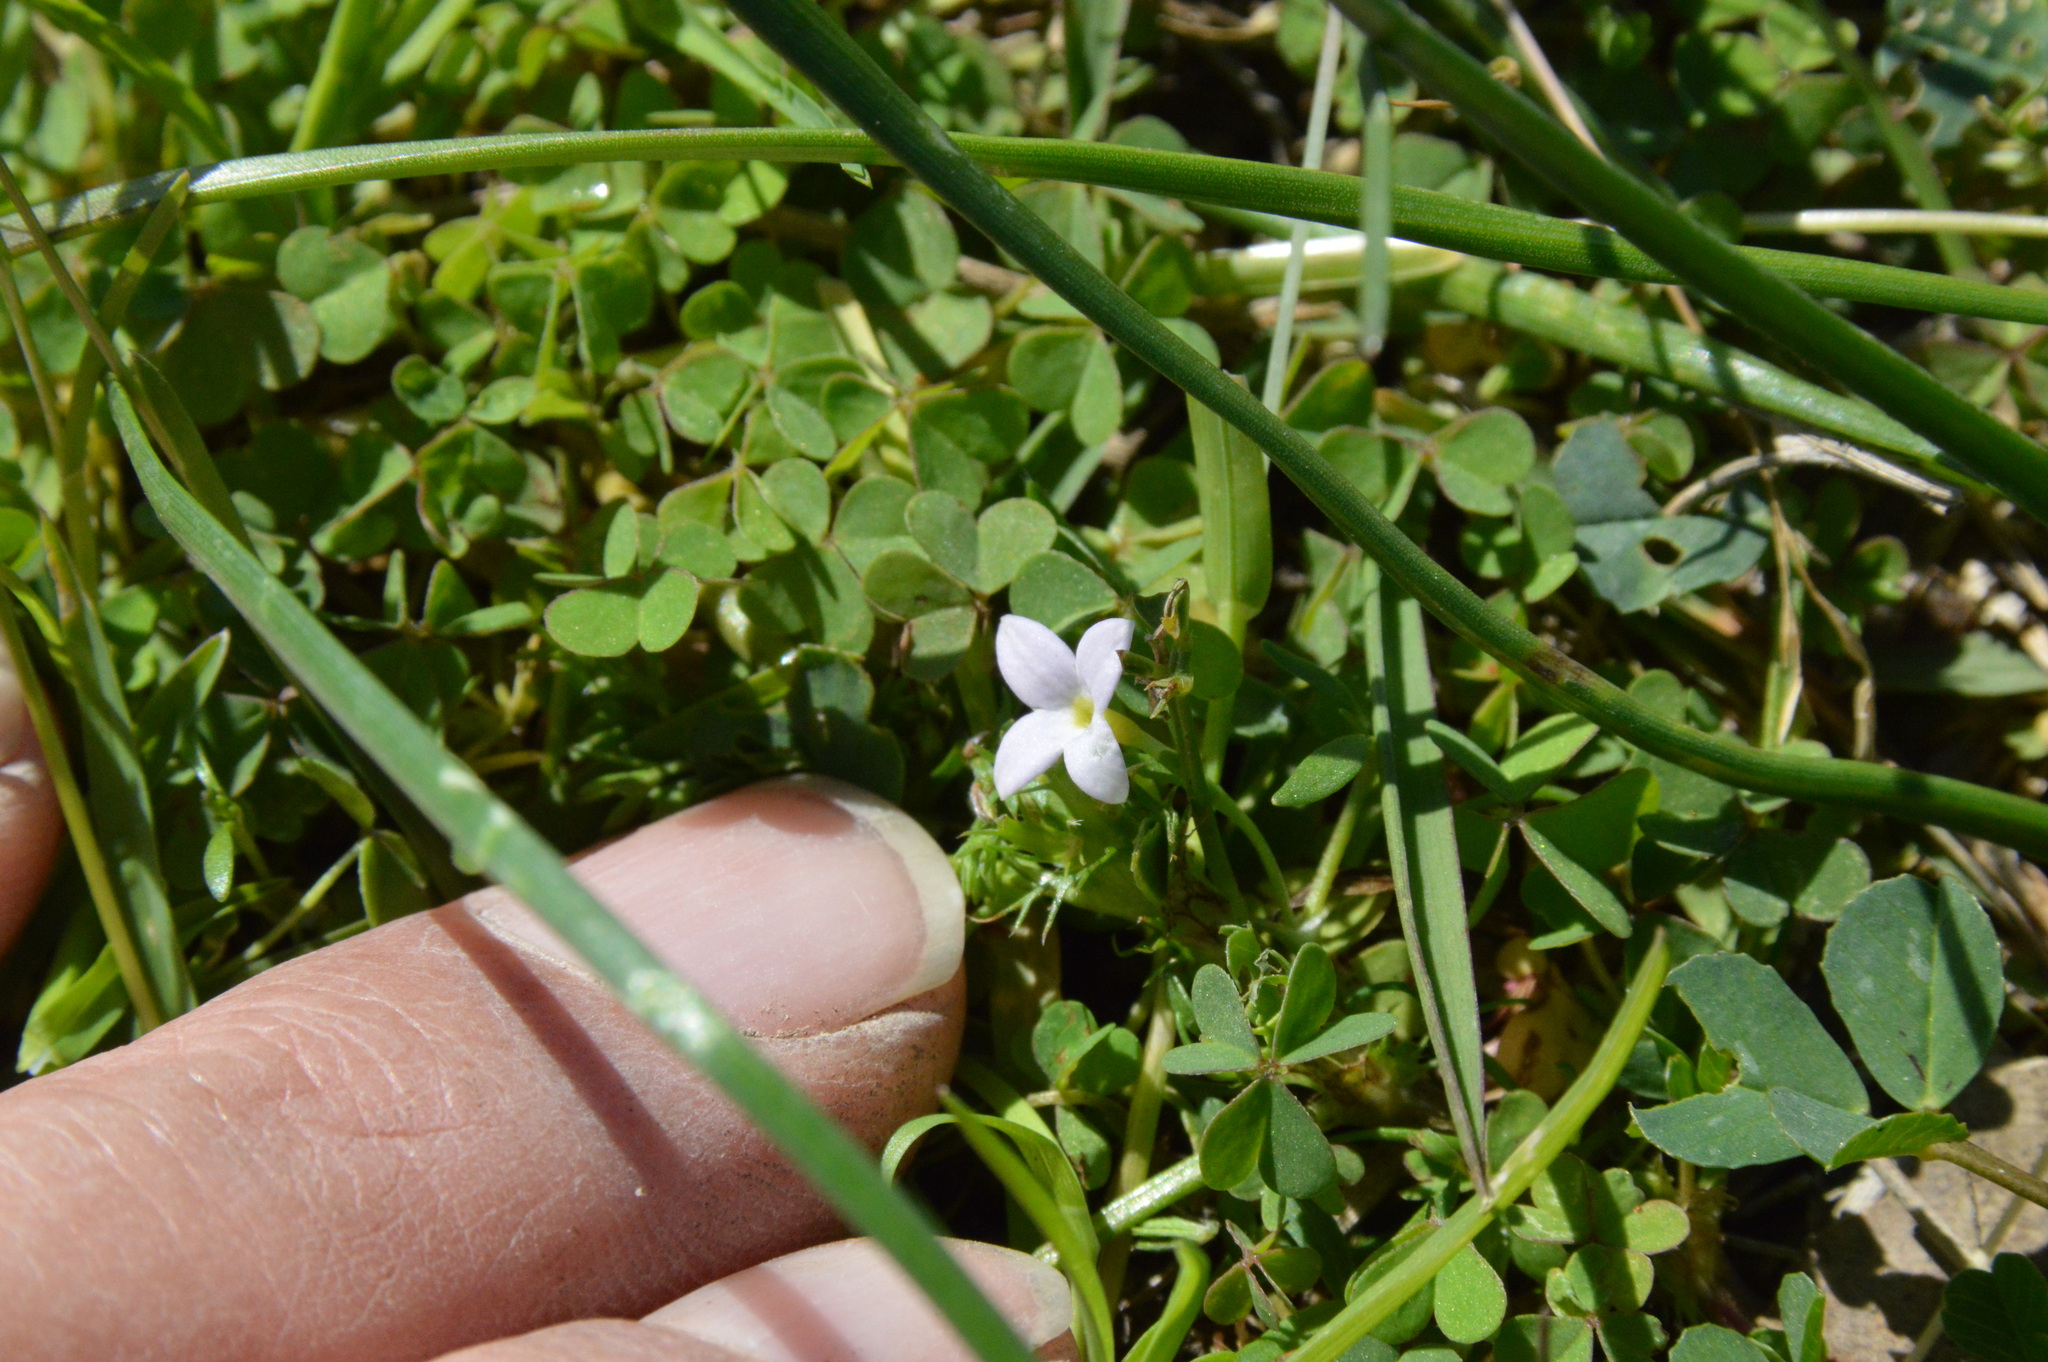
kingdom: Plantae
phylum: Tracheophyta
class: Magnoliopsida
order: Gentianales
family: Rubiaceae
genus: Houstonia
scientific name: Houstonia rosea
